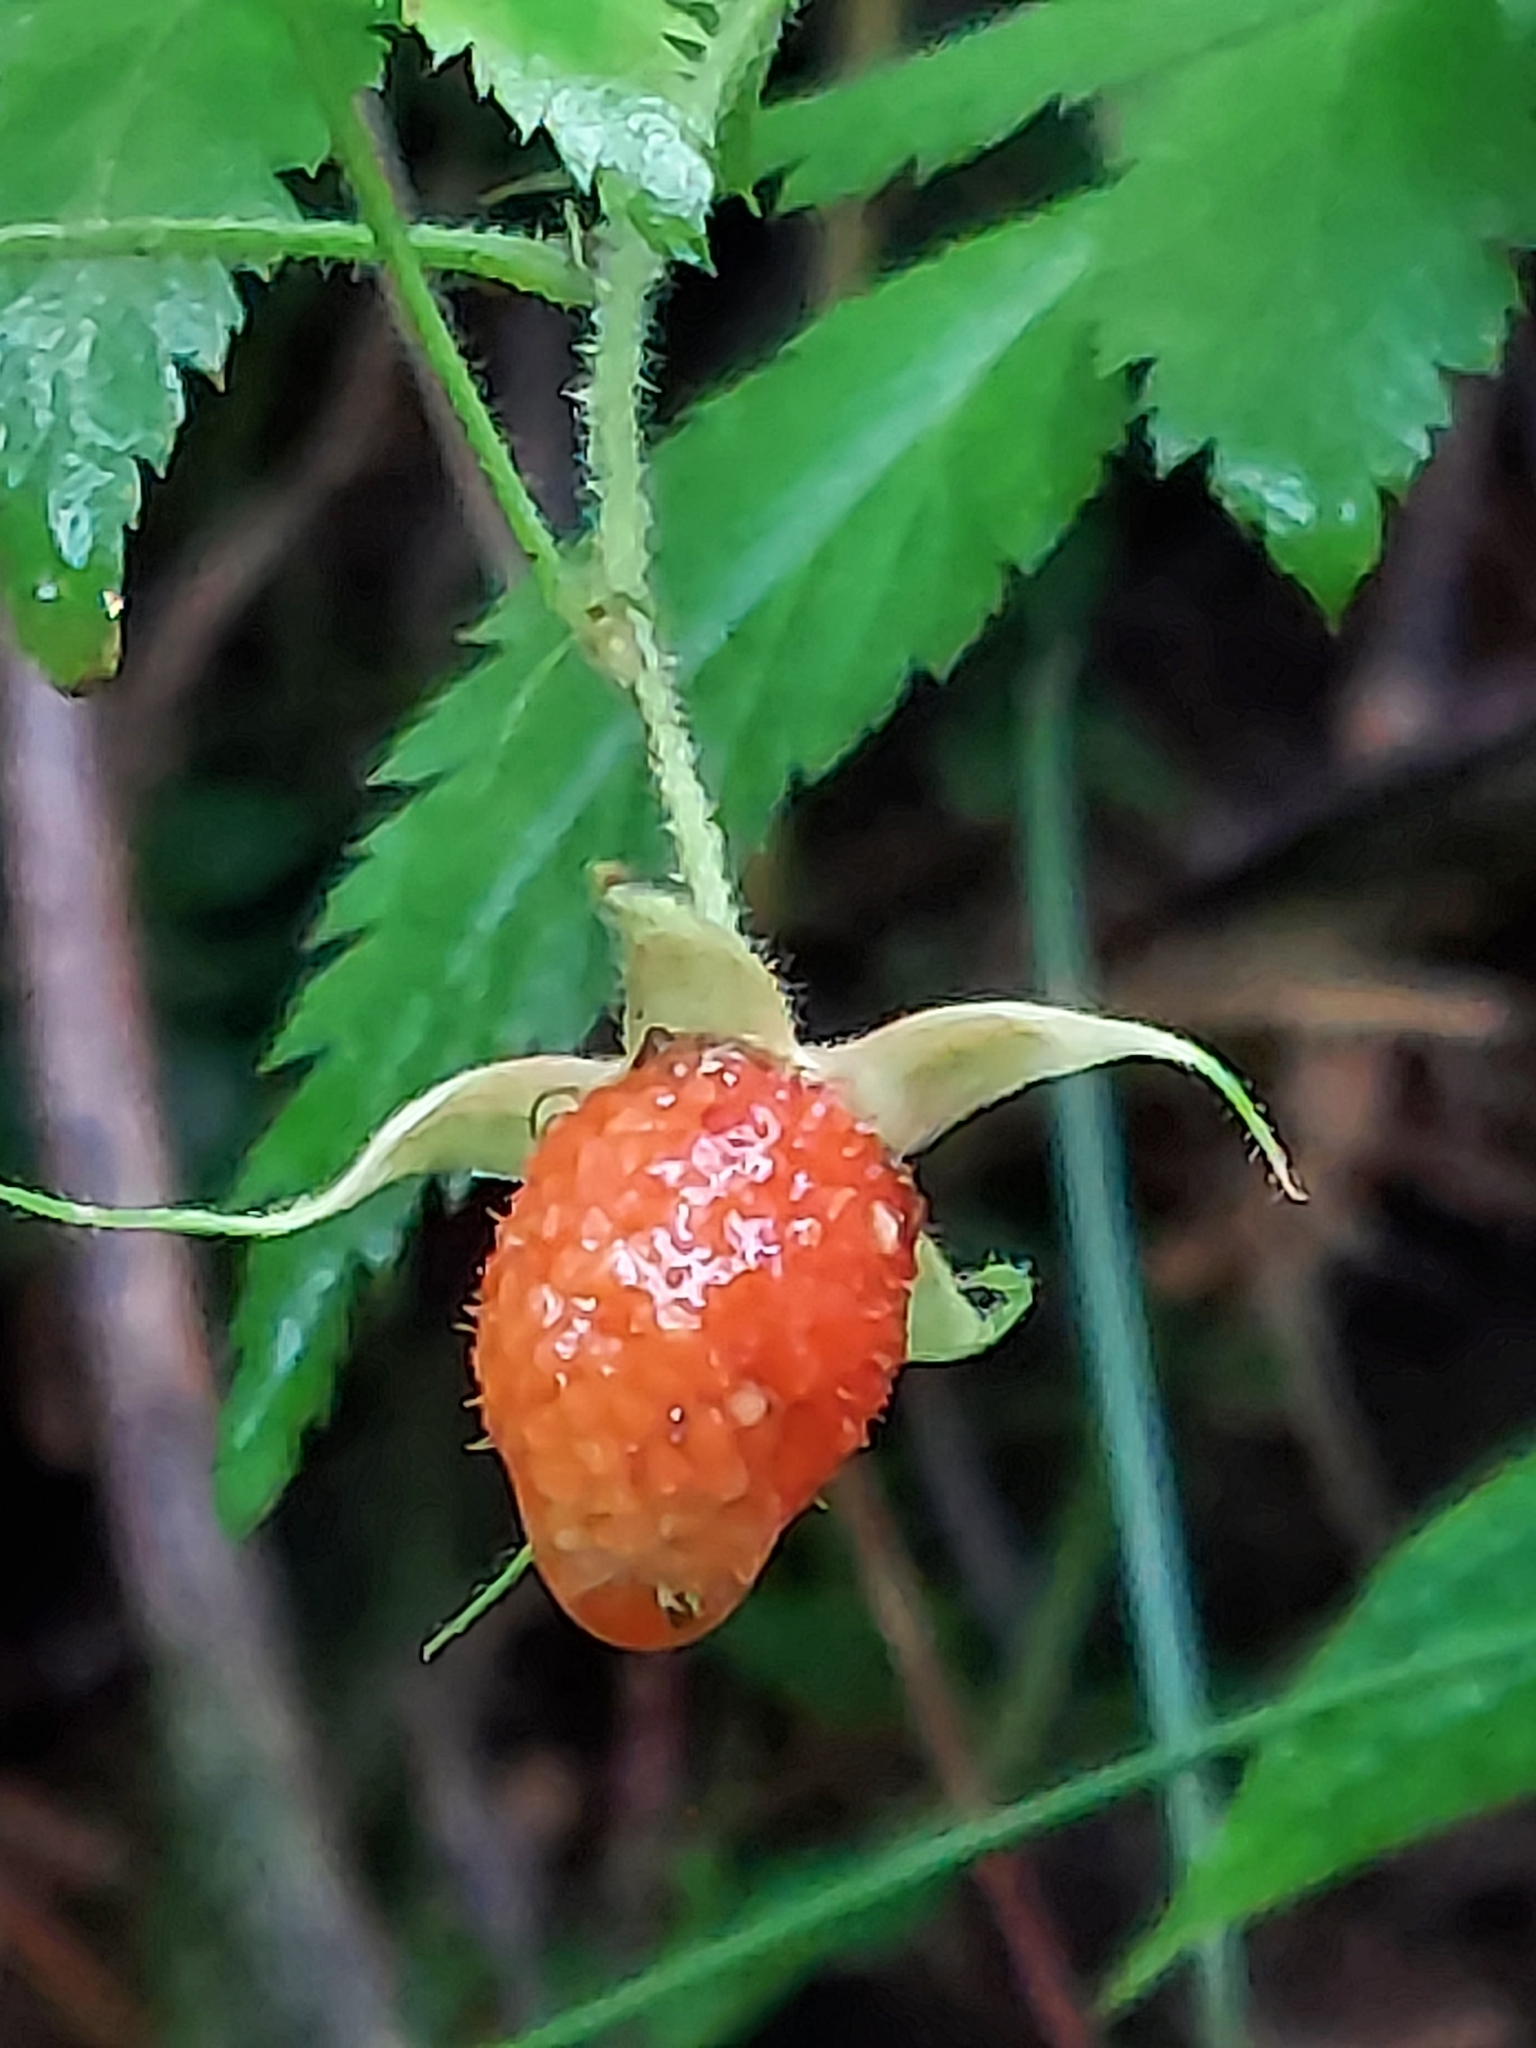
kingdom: Plantae
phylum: Tracheophyta
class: Magnoliopsida
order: Rosales
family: Rosaceae
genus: Rubus
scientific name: Rubus rosifolius
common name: Roseleaf raspberry
